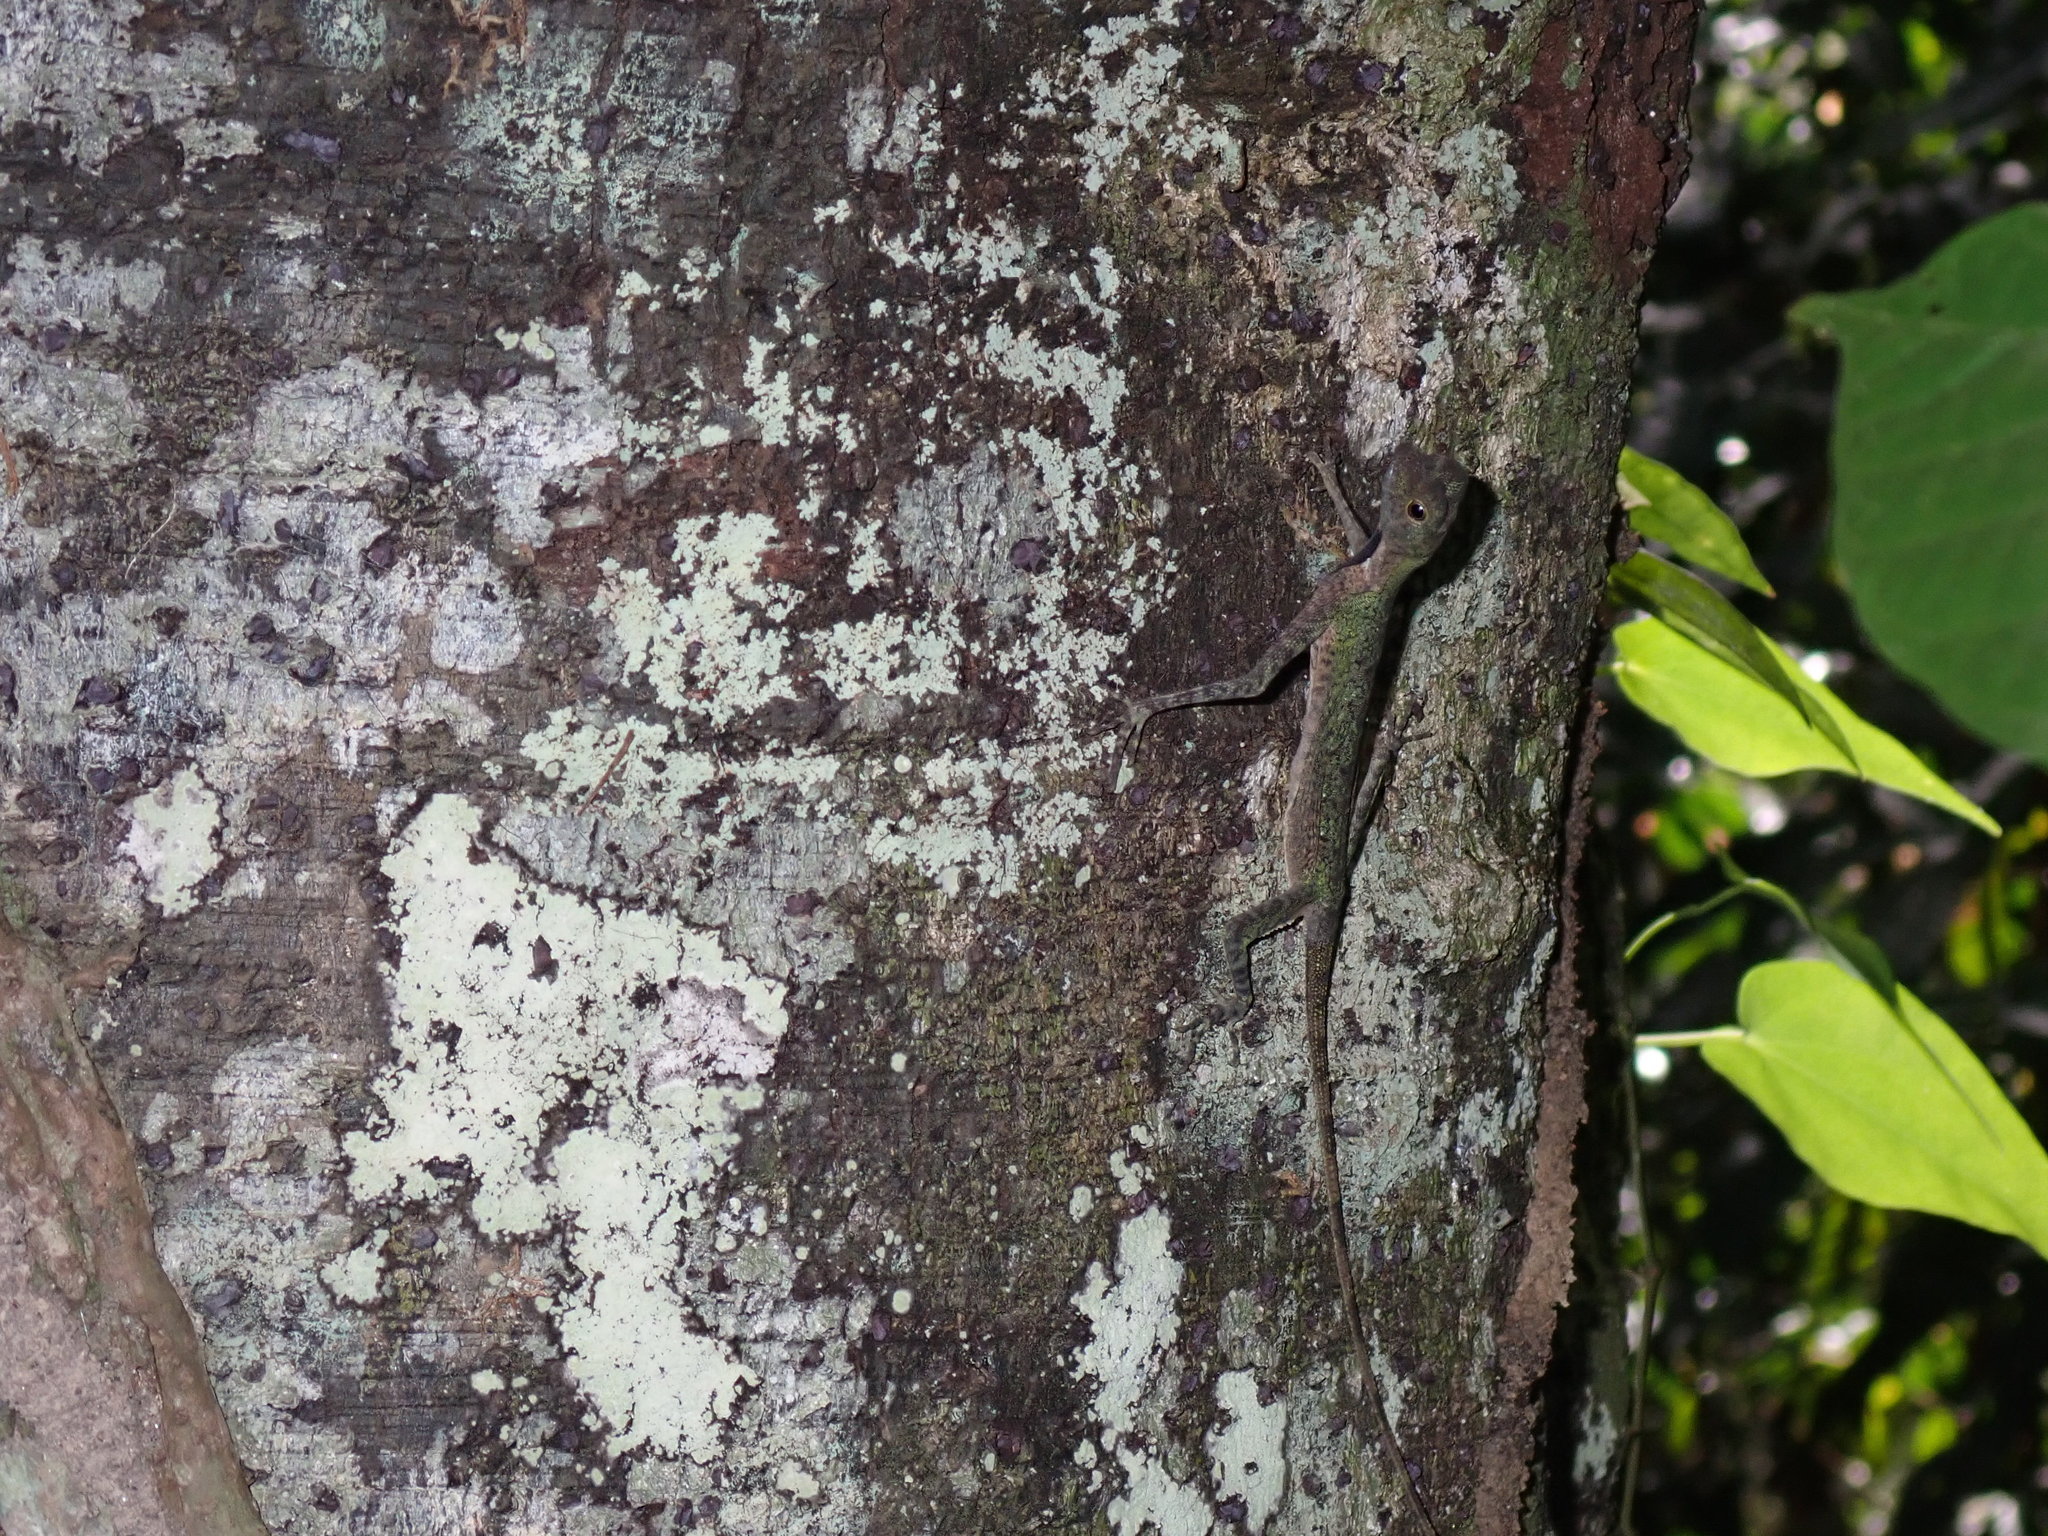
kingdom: Animalia
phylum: Chordata
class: Squamata
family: Agamidae
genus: Draco
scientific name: Draco melanopogon
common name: Black-barbed flying dragon
